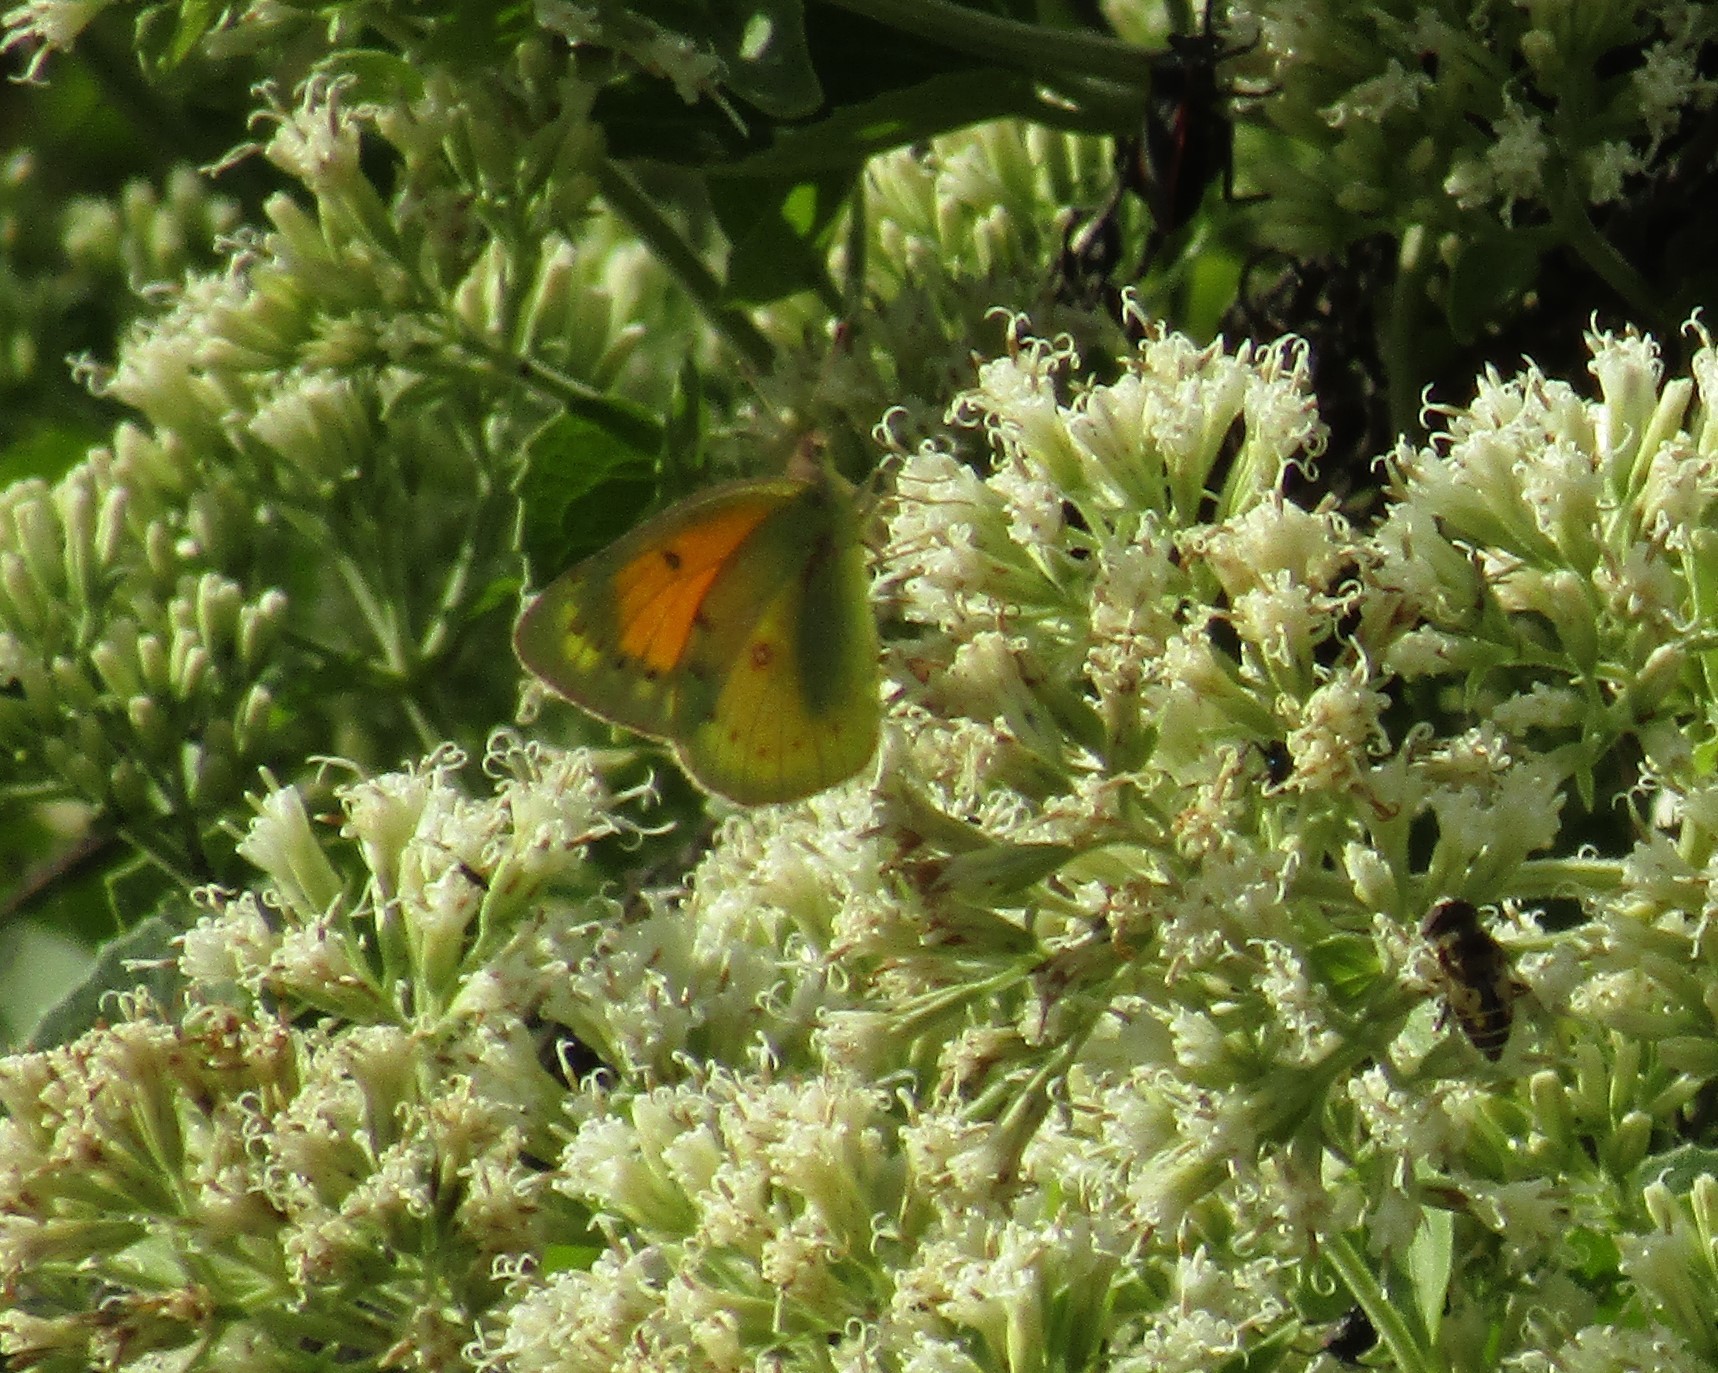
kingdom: Animalia
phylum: Arthropoda
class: Insecta
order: Lepidoptera
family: Pieridae
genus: Colias
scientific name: Colias lesbia
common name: Lesbia clouded yellow
